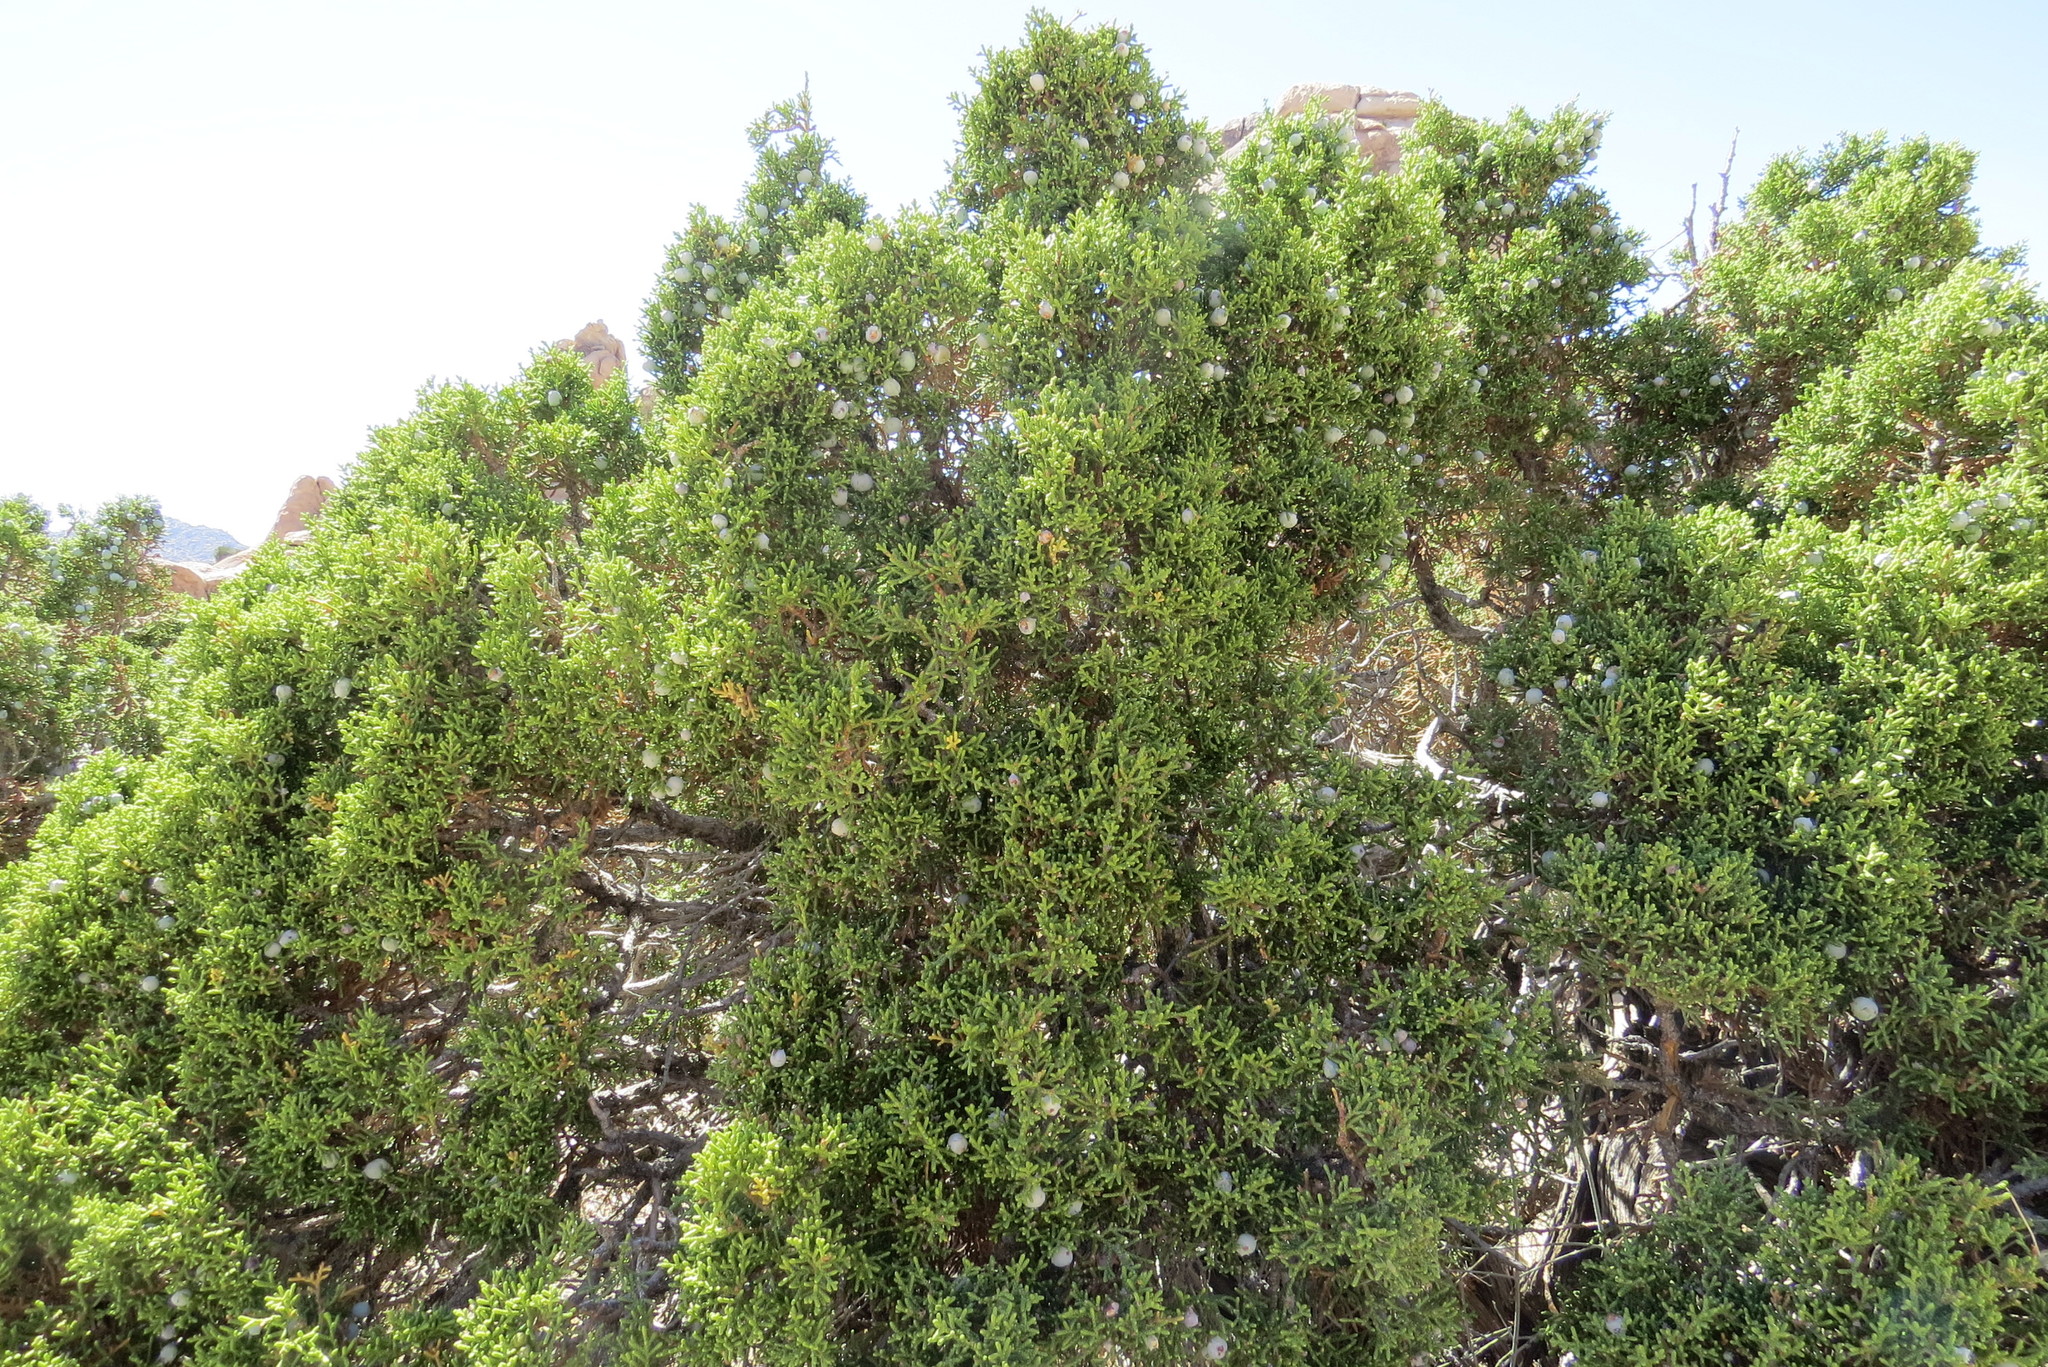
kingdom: Plantae
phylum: Tracheophyta
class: Pinopsida
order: Pinales
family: Cupressaceae
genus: Juniperus
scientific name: Juniperus californica
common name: California juniper
